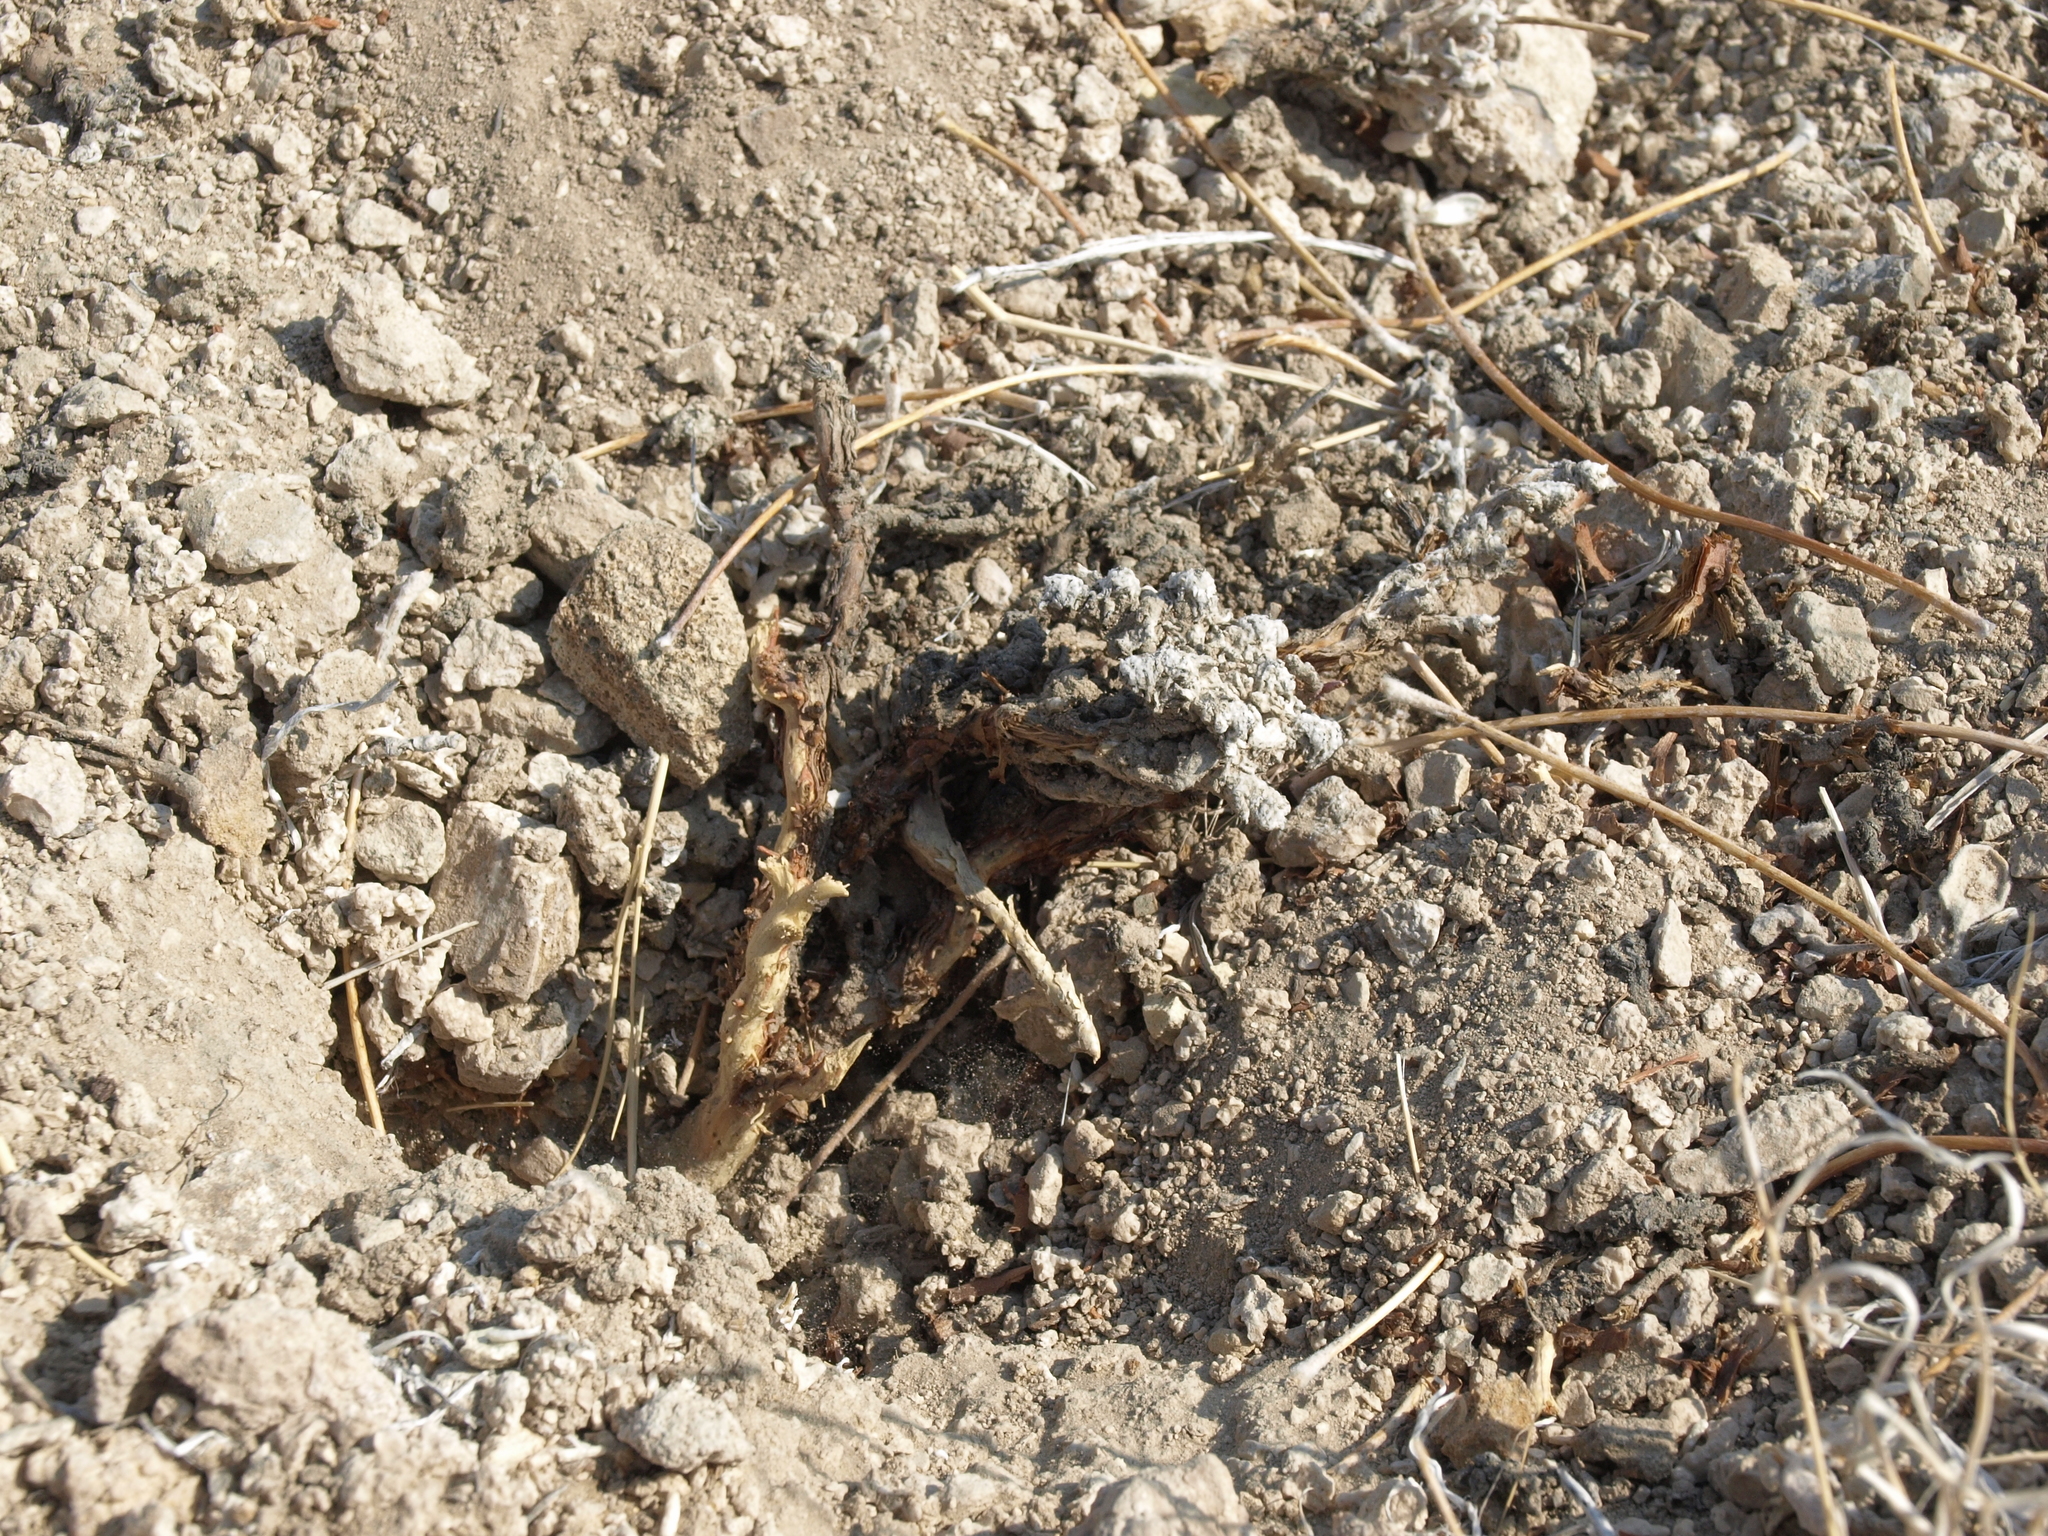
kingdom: Plantae
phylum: Tracheophyta
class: Magnoliopsida
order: Caryophyllales
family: Polygonaceae
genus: Eriogonum
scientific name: Eriogonum tiehmii
